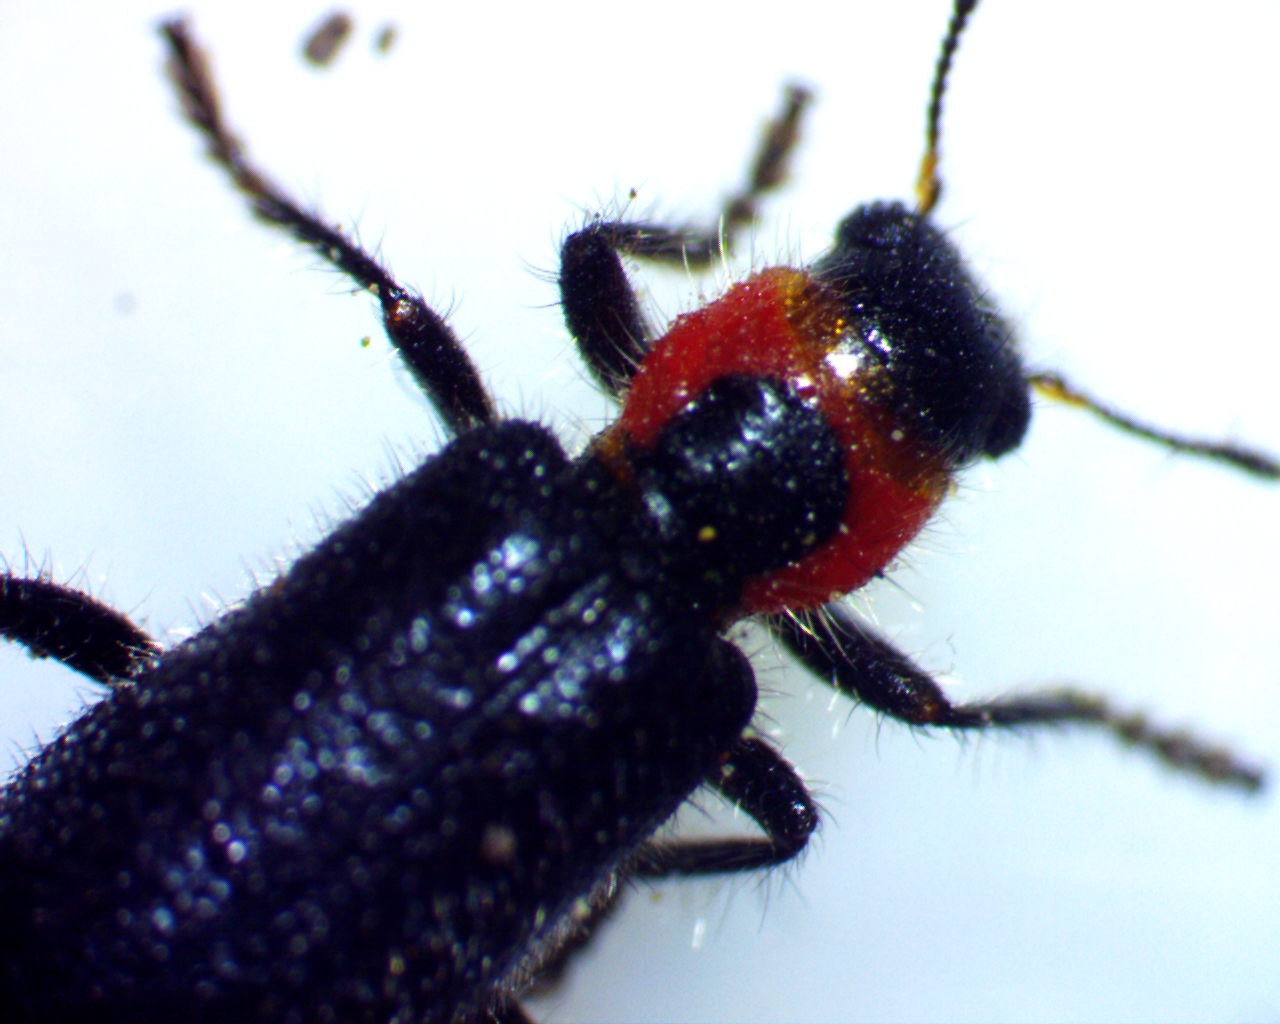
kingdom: Animalia
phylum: Arthropoda
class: Insecta
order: Coleoptera
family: Cleridae
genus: Placopterus
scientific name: Placopterus thoracicus
